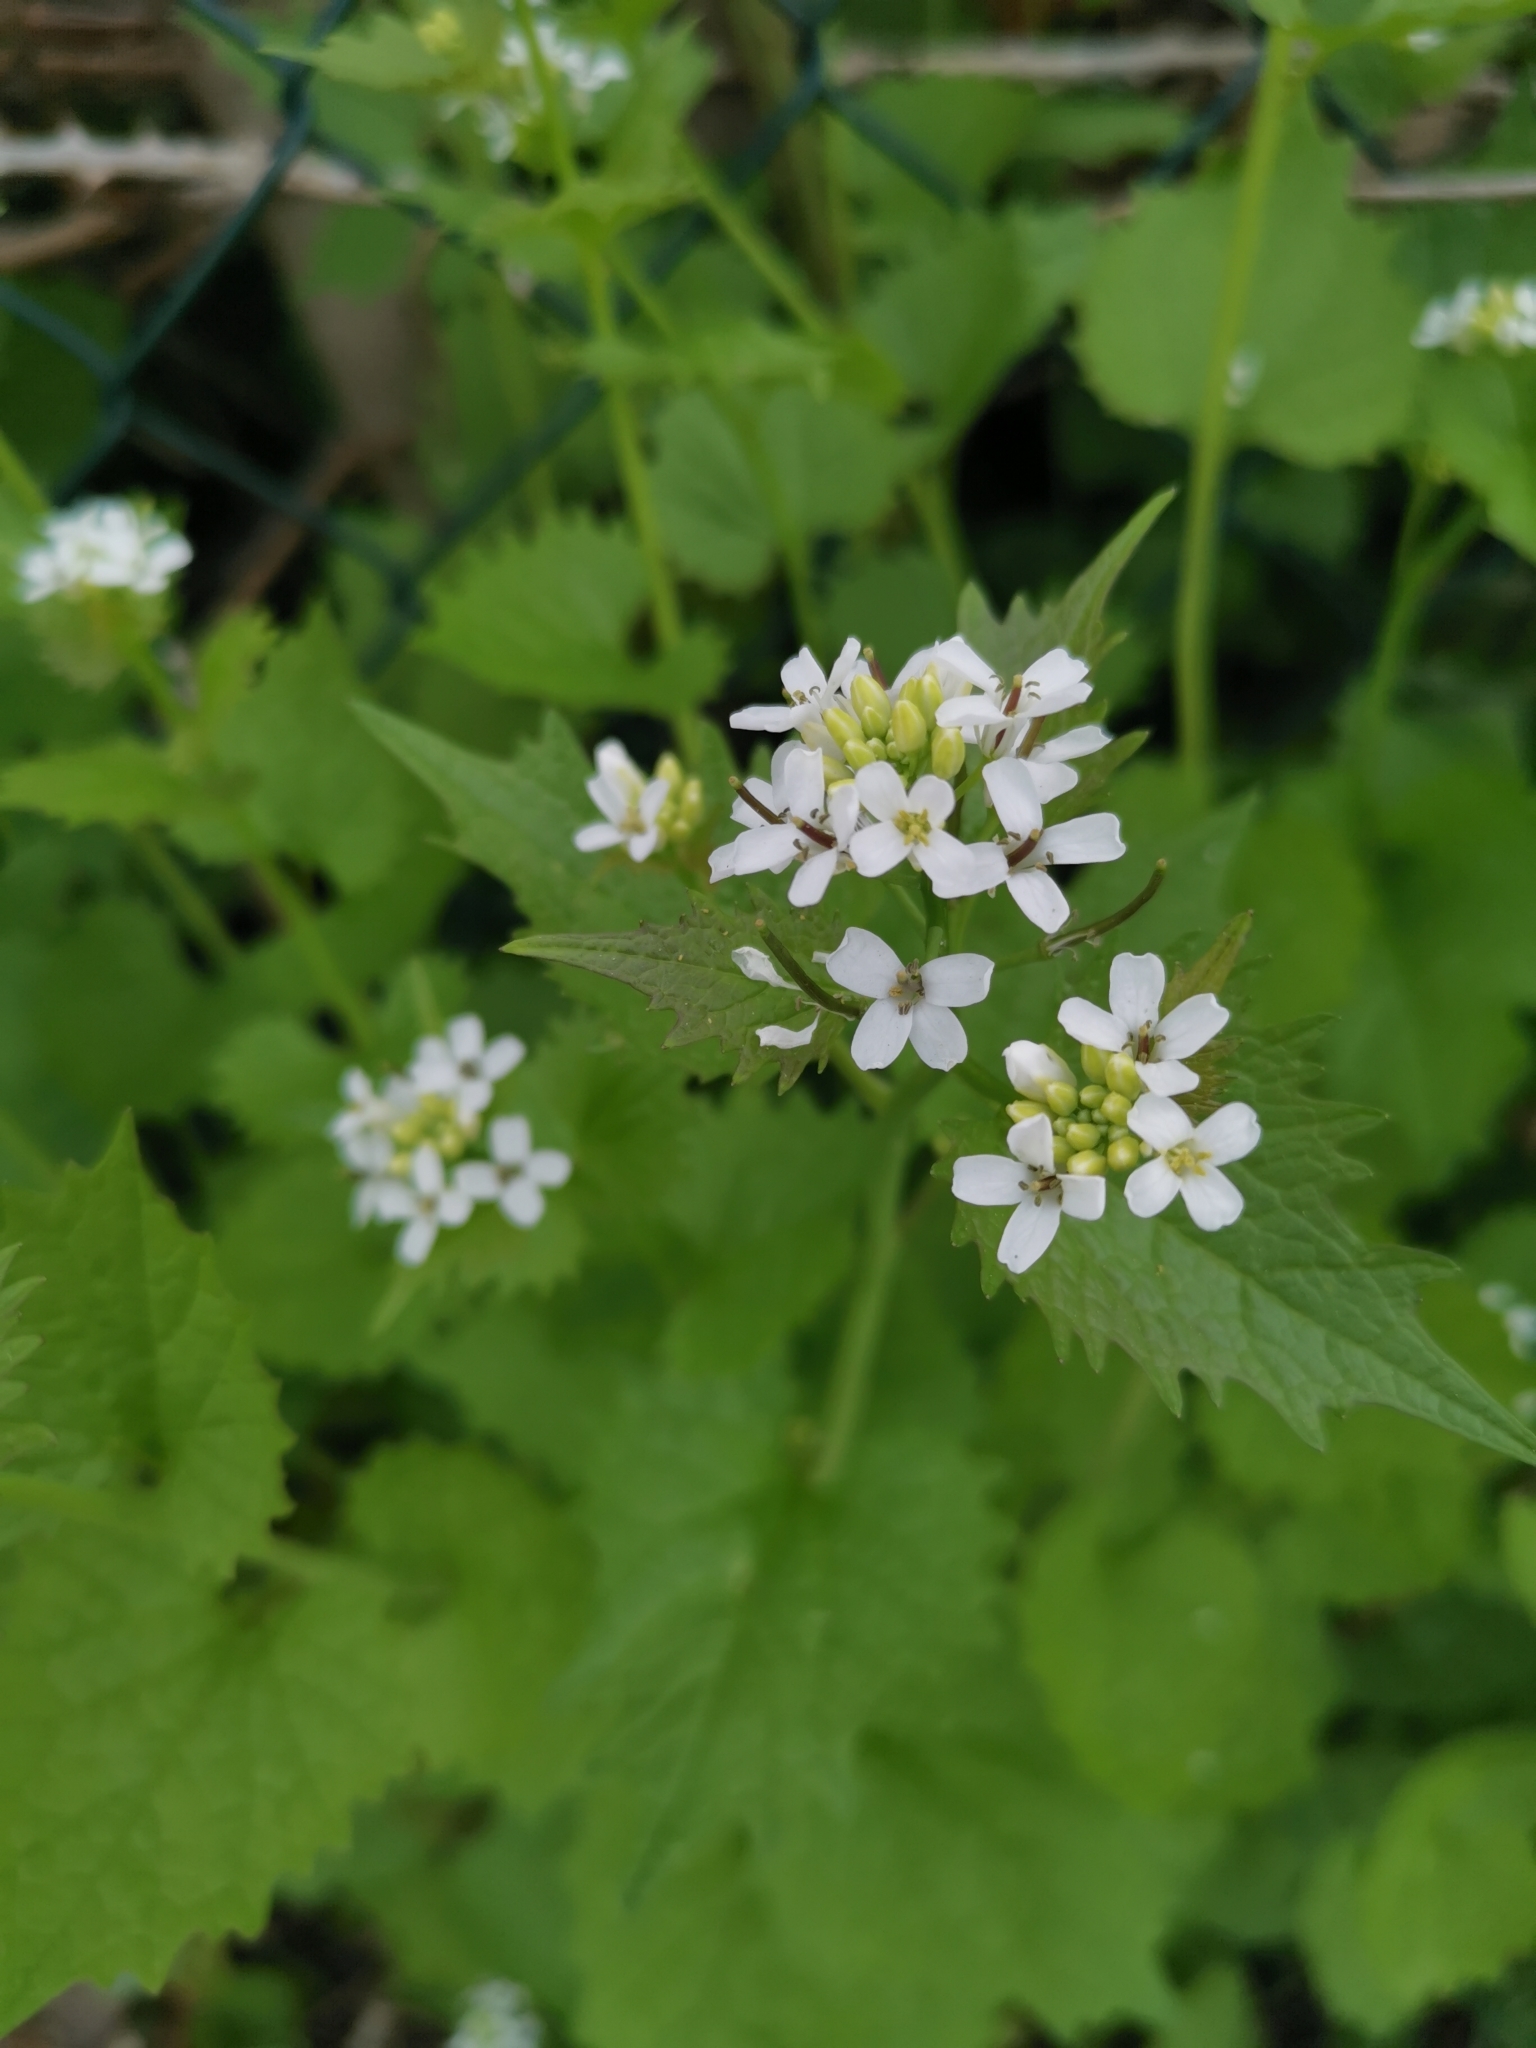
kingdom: Plantae
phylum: Tracheophyta
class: Magnoliopsida
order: Brassicales
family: Brassicaceae
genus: Alliaria
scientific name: Alliaria petiolata
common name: Garlic mustard
